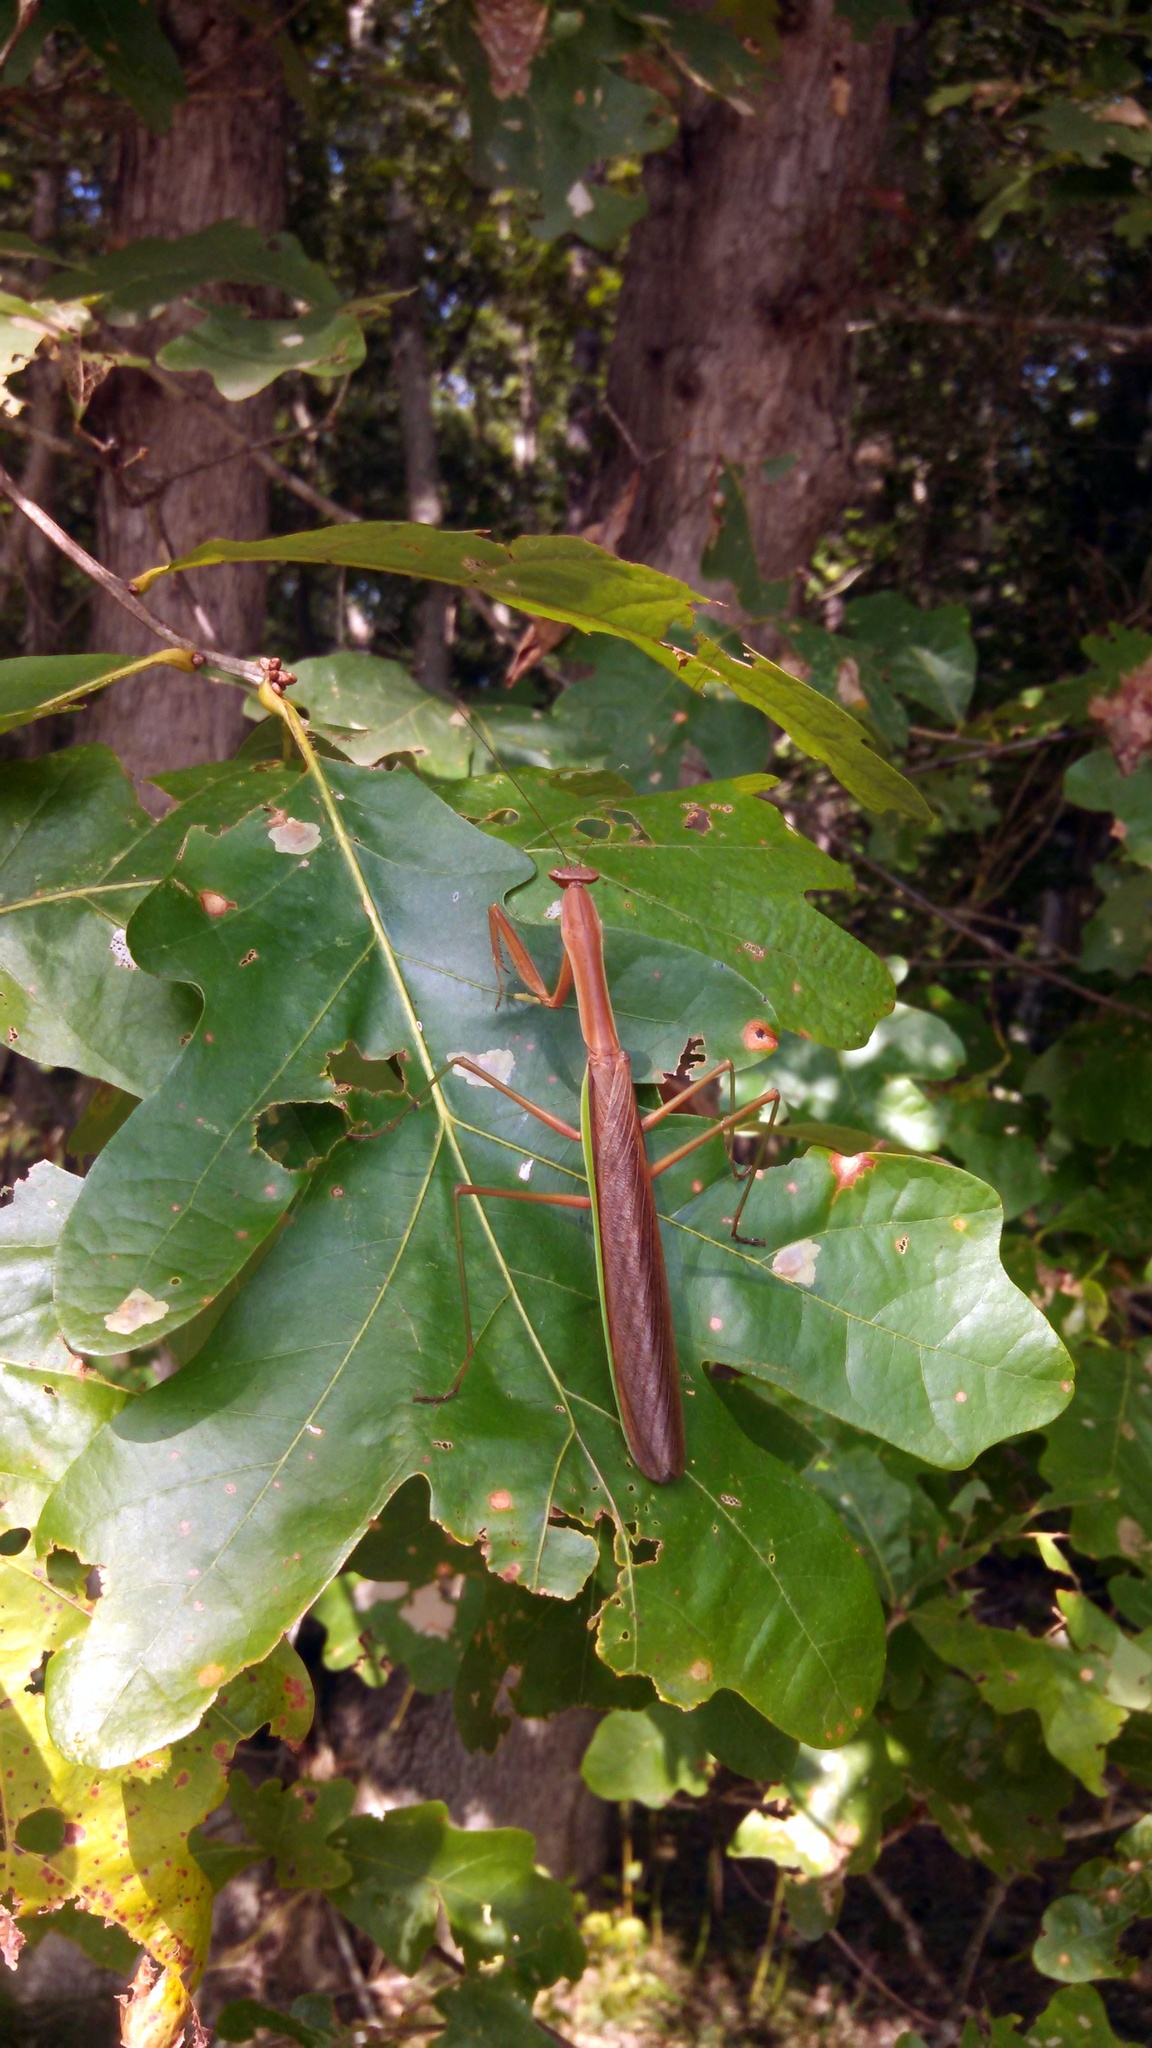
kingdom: Animalia
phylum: Arthropoda
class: Insecta
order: Mantodea
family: Mantidae
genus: Tenodera
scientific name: Tenodera sinensis
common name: Chinese mantis
